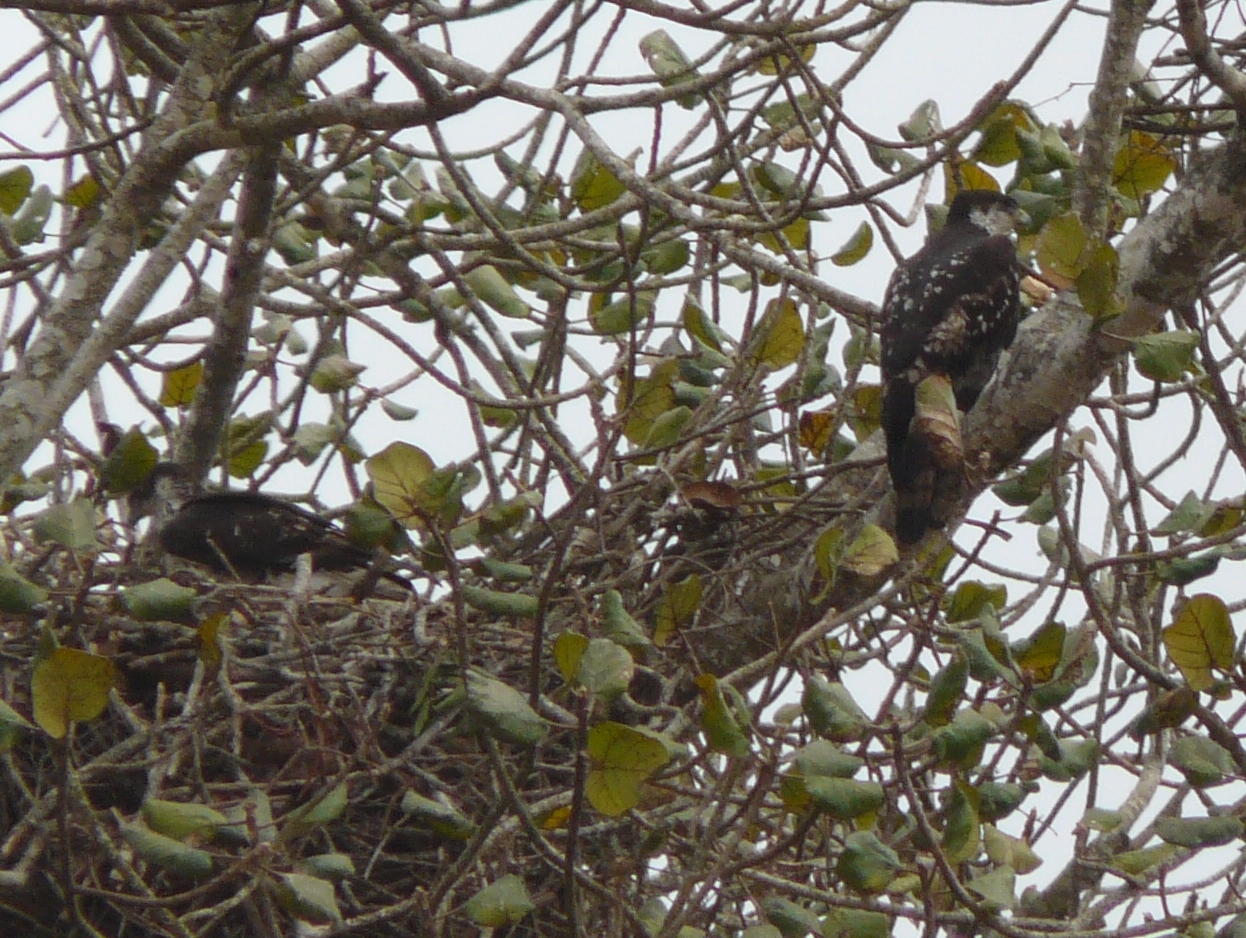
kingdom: Animalia
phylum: Chordata
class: Aves
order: Accipitriformes
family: Accipitridae
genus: Aquila
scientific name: Aquila spilogaster
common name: African hawk-eagle
